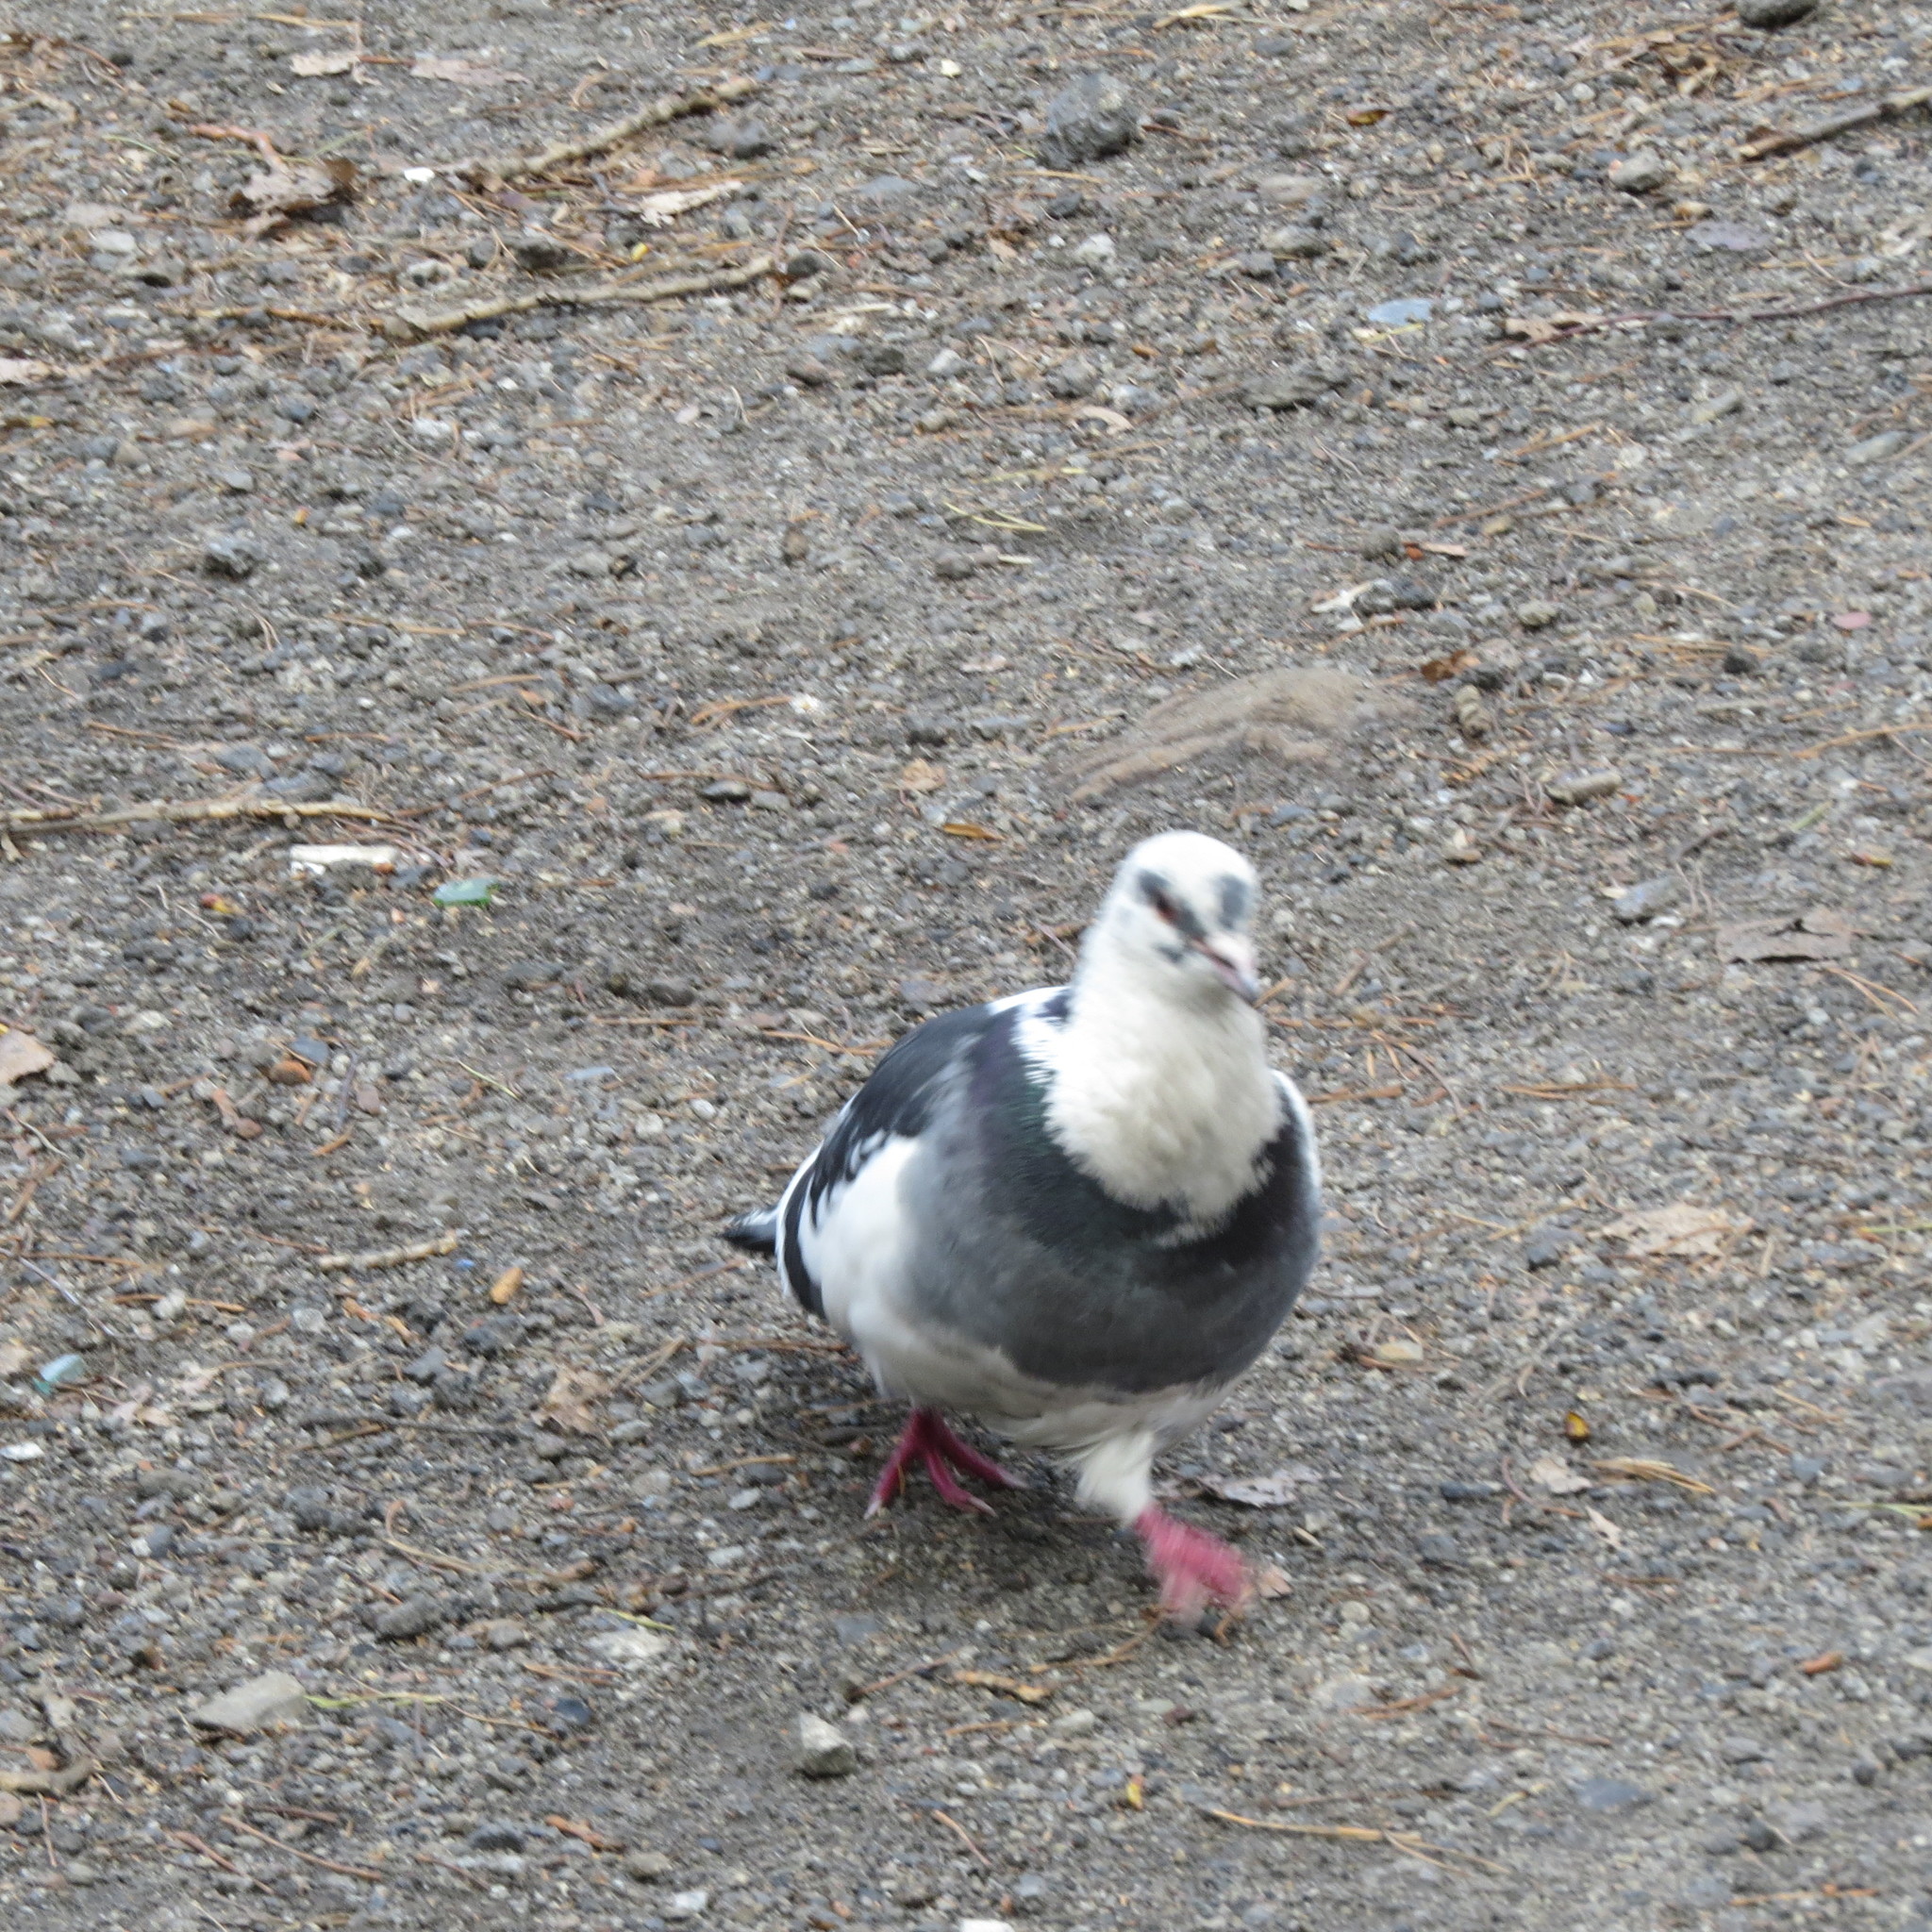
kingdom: Animalia
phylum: Chordata
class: Aves
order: Columbiformes
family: Columbidae
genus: Columba
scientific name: Columba livia
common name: Rock pigeon
